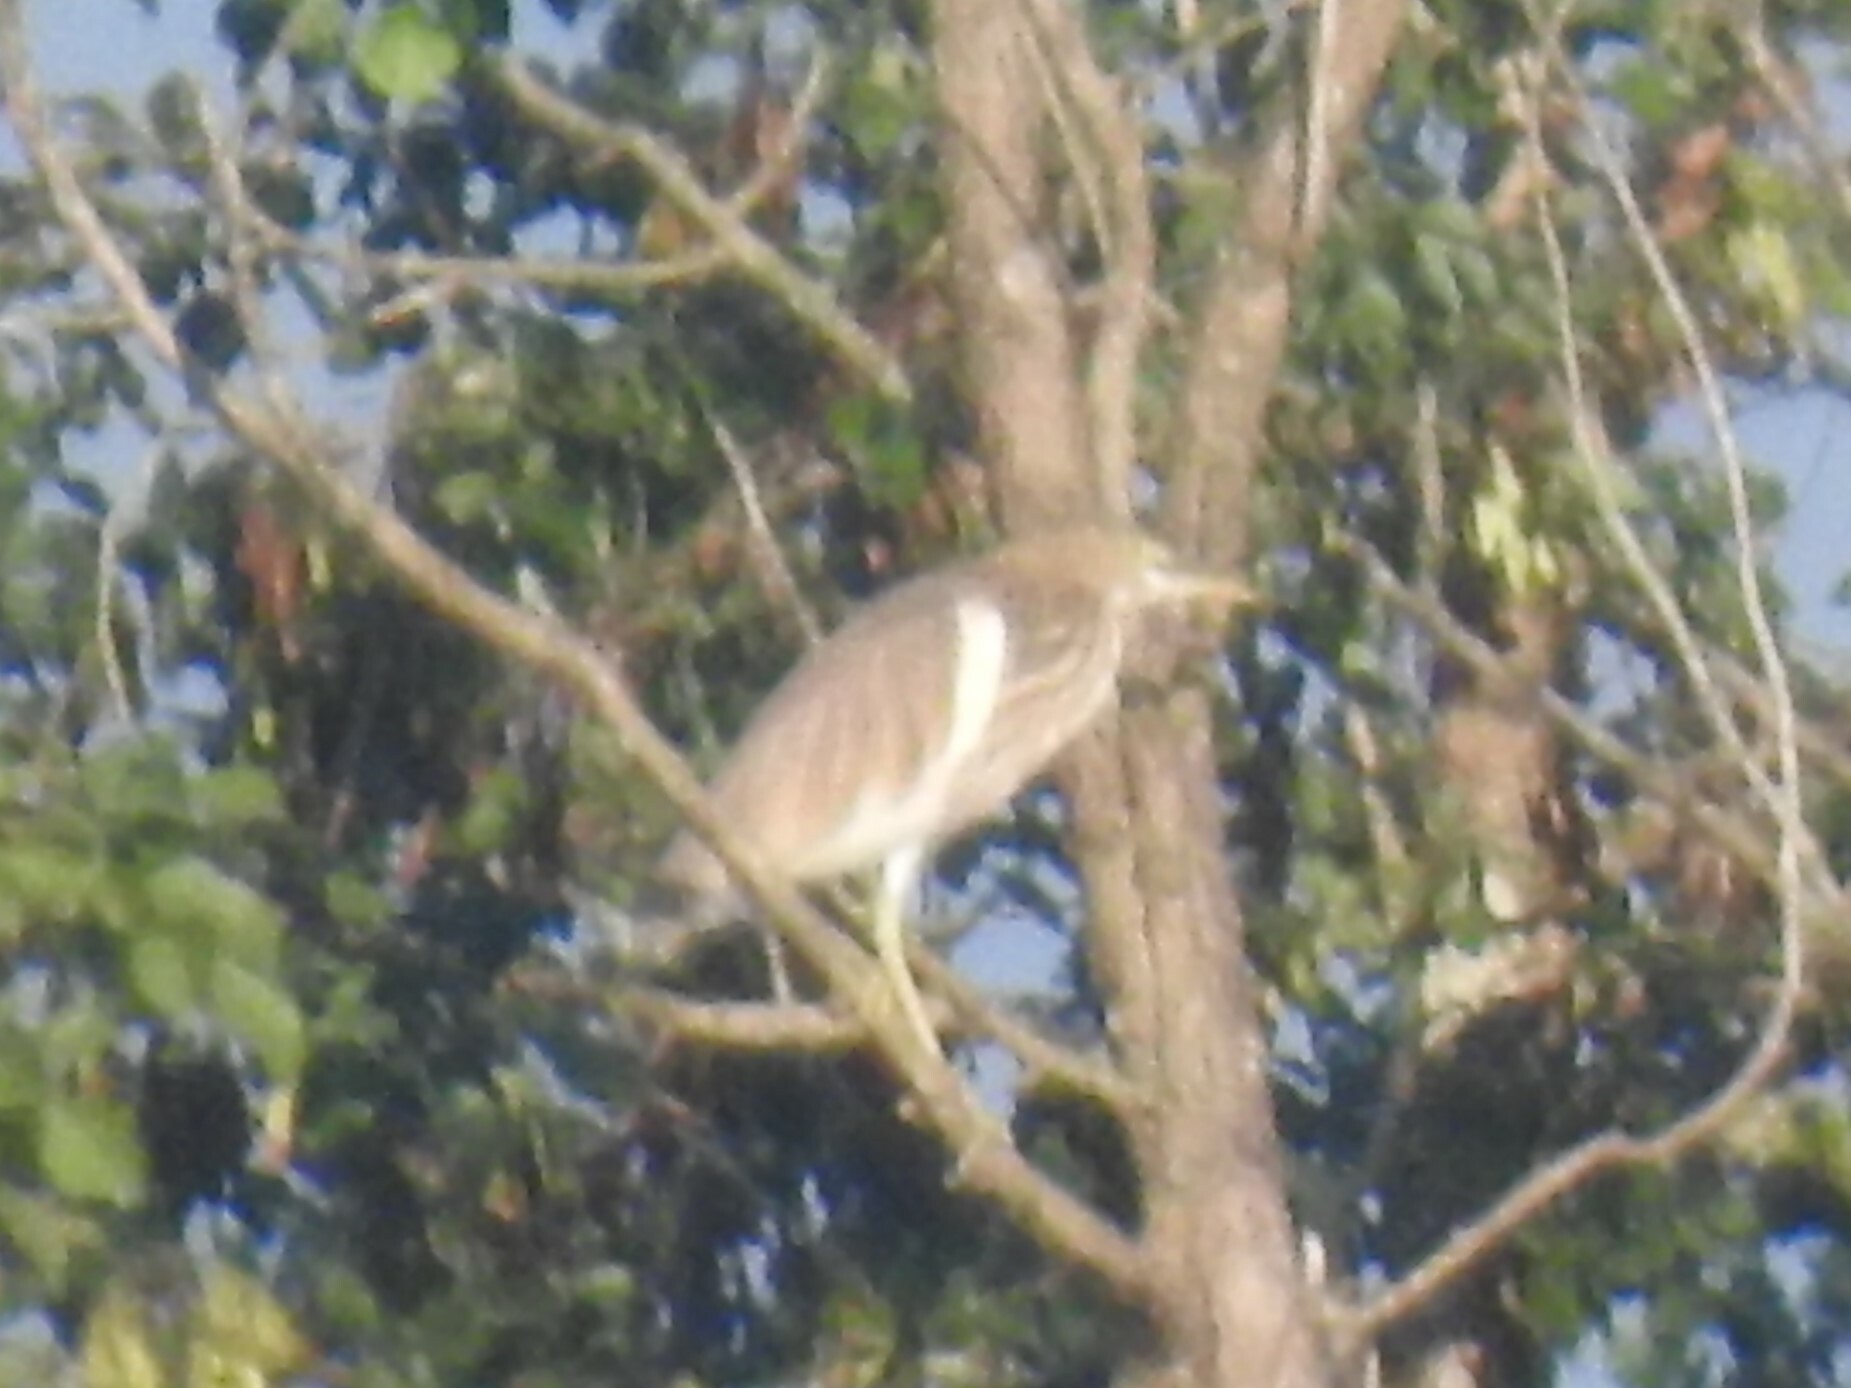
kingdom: Animalia
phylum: Chordata
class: Aves
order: Pelecaniformes
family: Ardeidae
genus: Ardeola
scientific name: Ardeola grayii
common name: Indian pond heron
